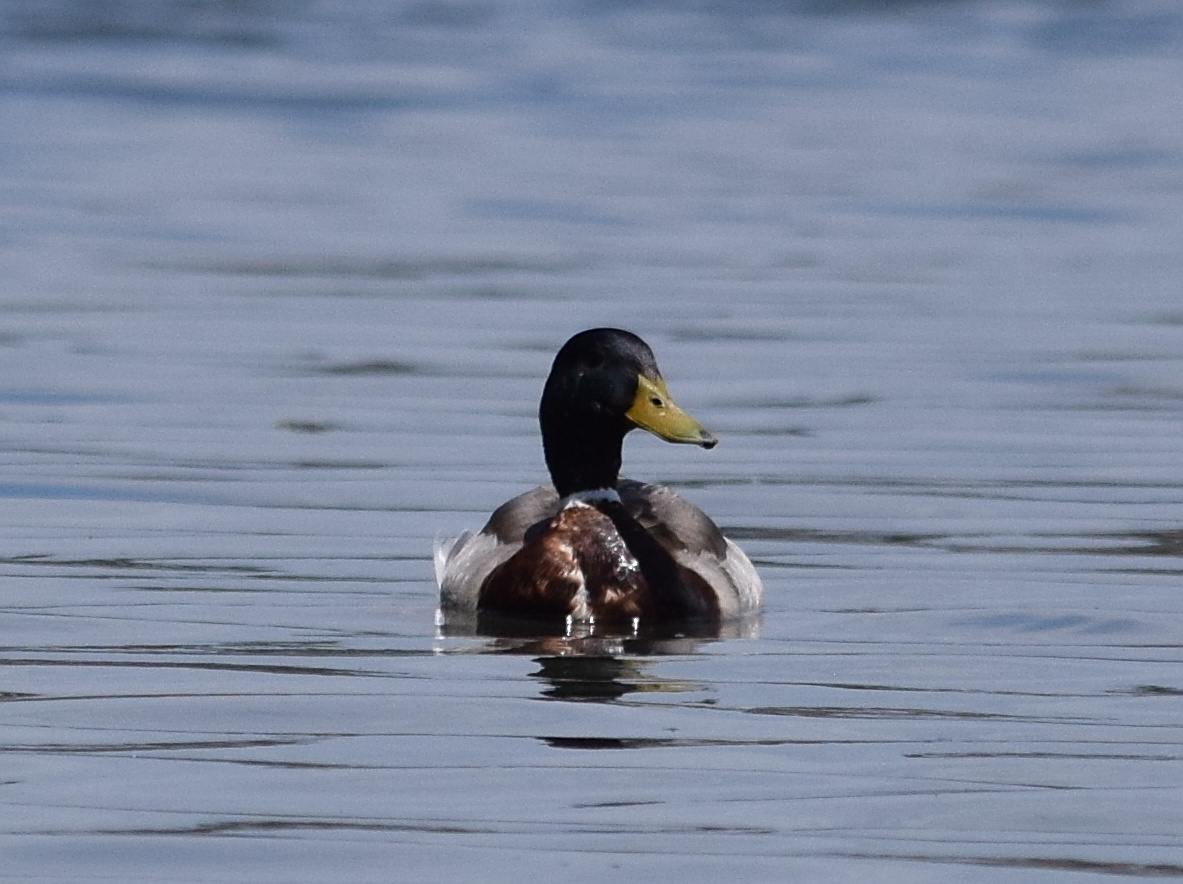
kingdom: Animalia
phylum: Chordata
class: Aves
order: Anseriformes
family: Anatidae
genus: Anas
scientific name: Anas platyrhynchos
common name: Mallard
